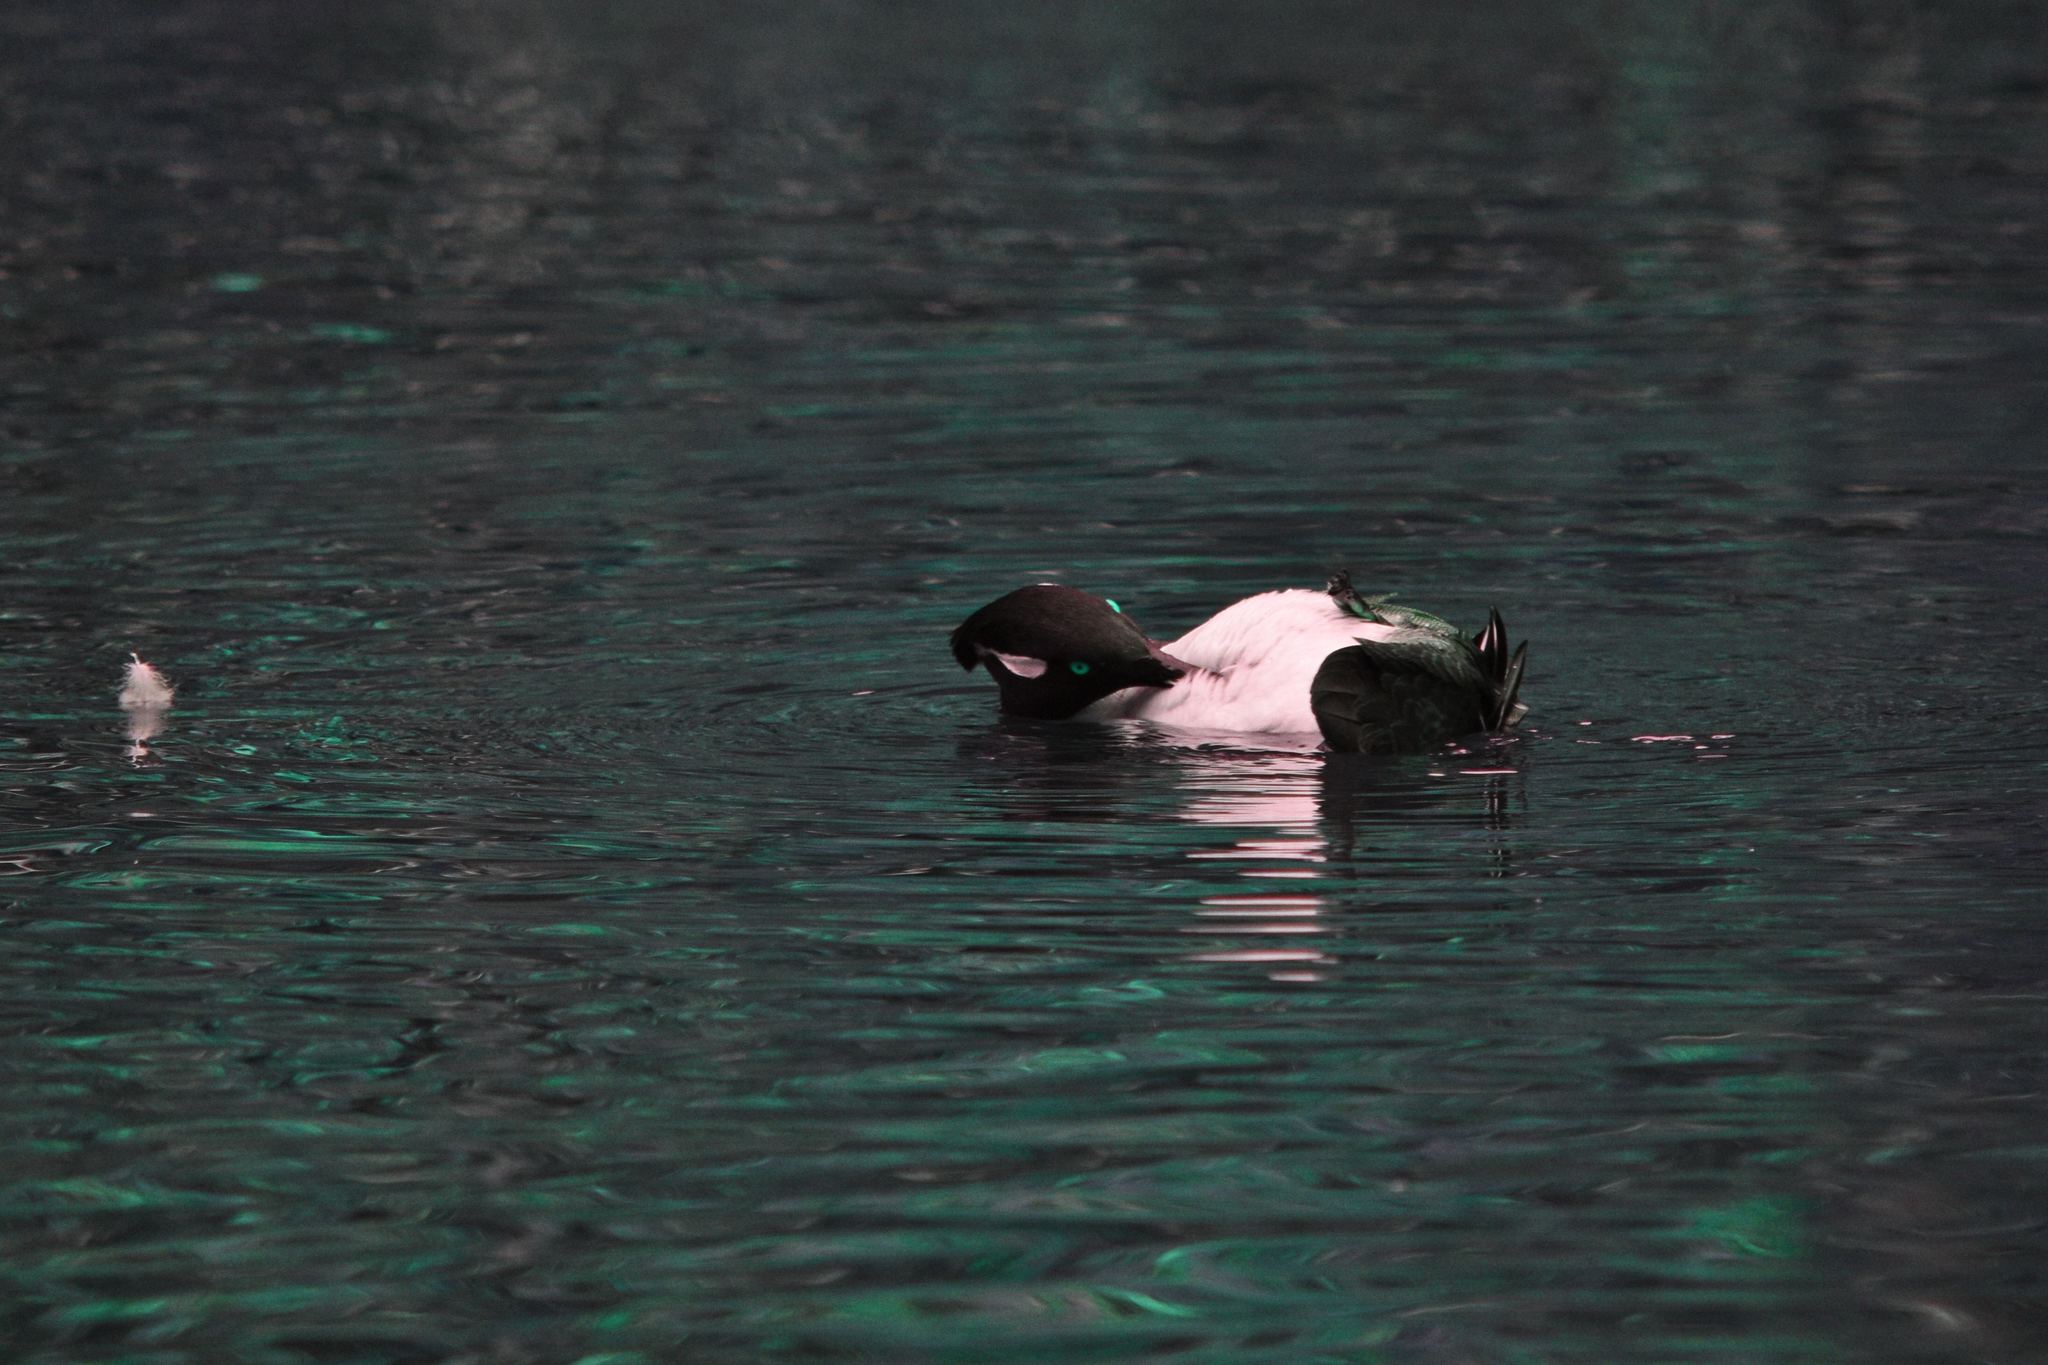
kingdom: Animalia
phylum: Chordata
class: Aves
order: Anseriformes
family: Anatidae
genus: Lophodytes
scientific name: Lophodytes cucullatus
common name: Hooded merganser
